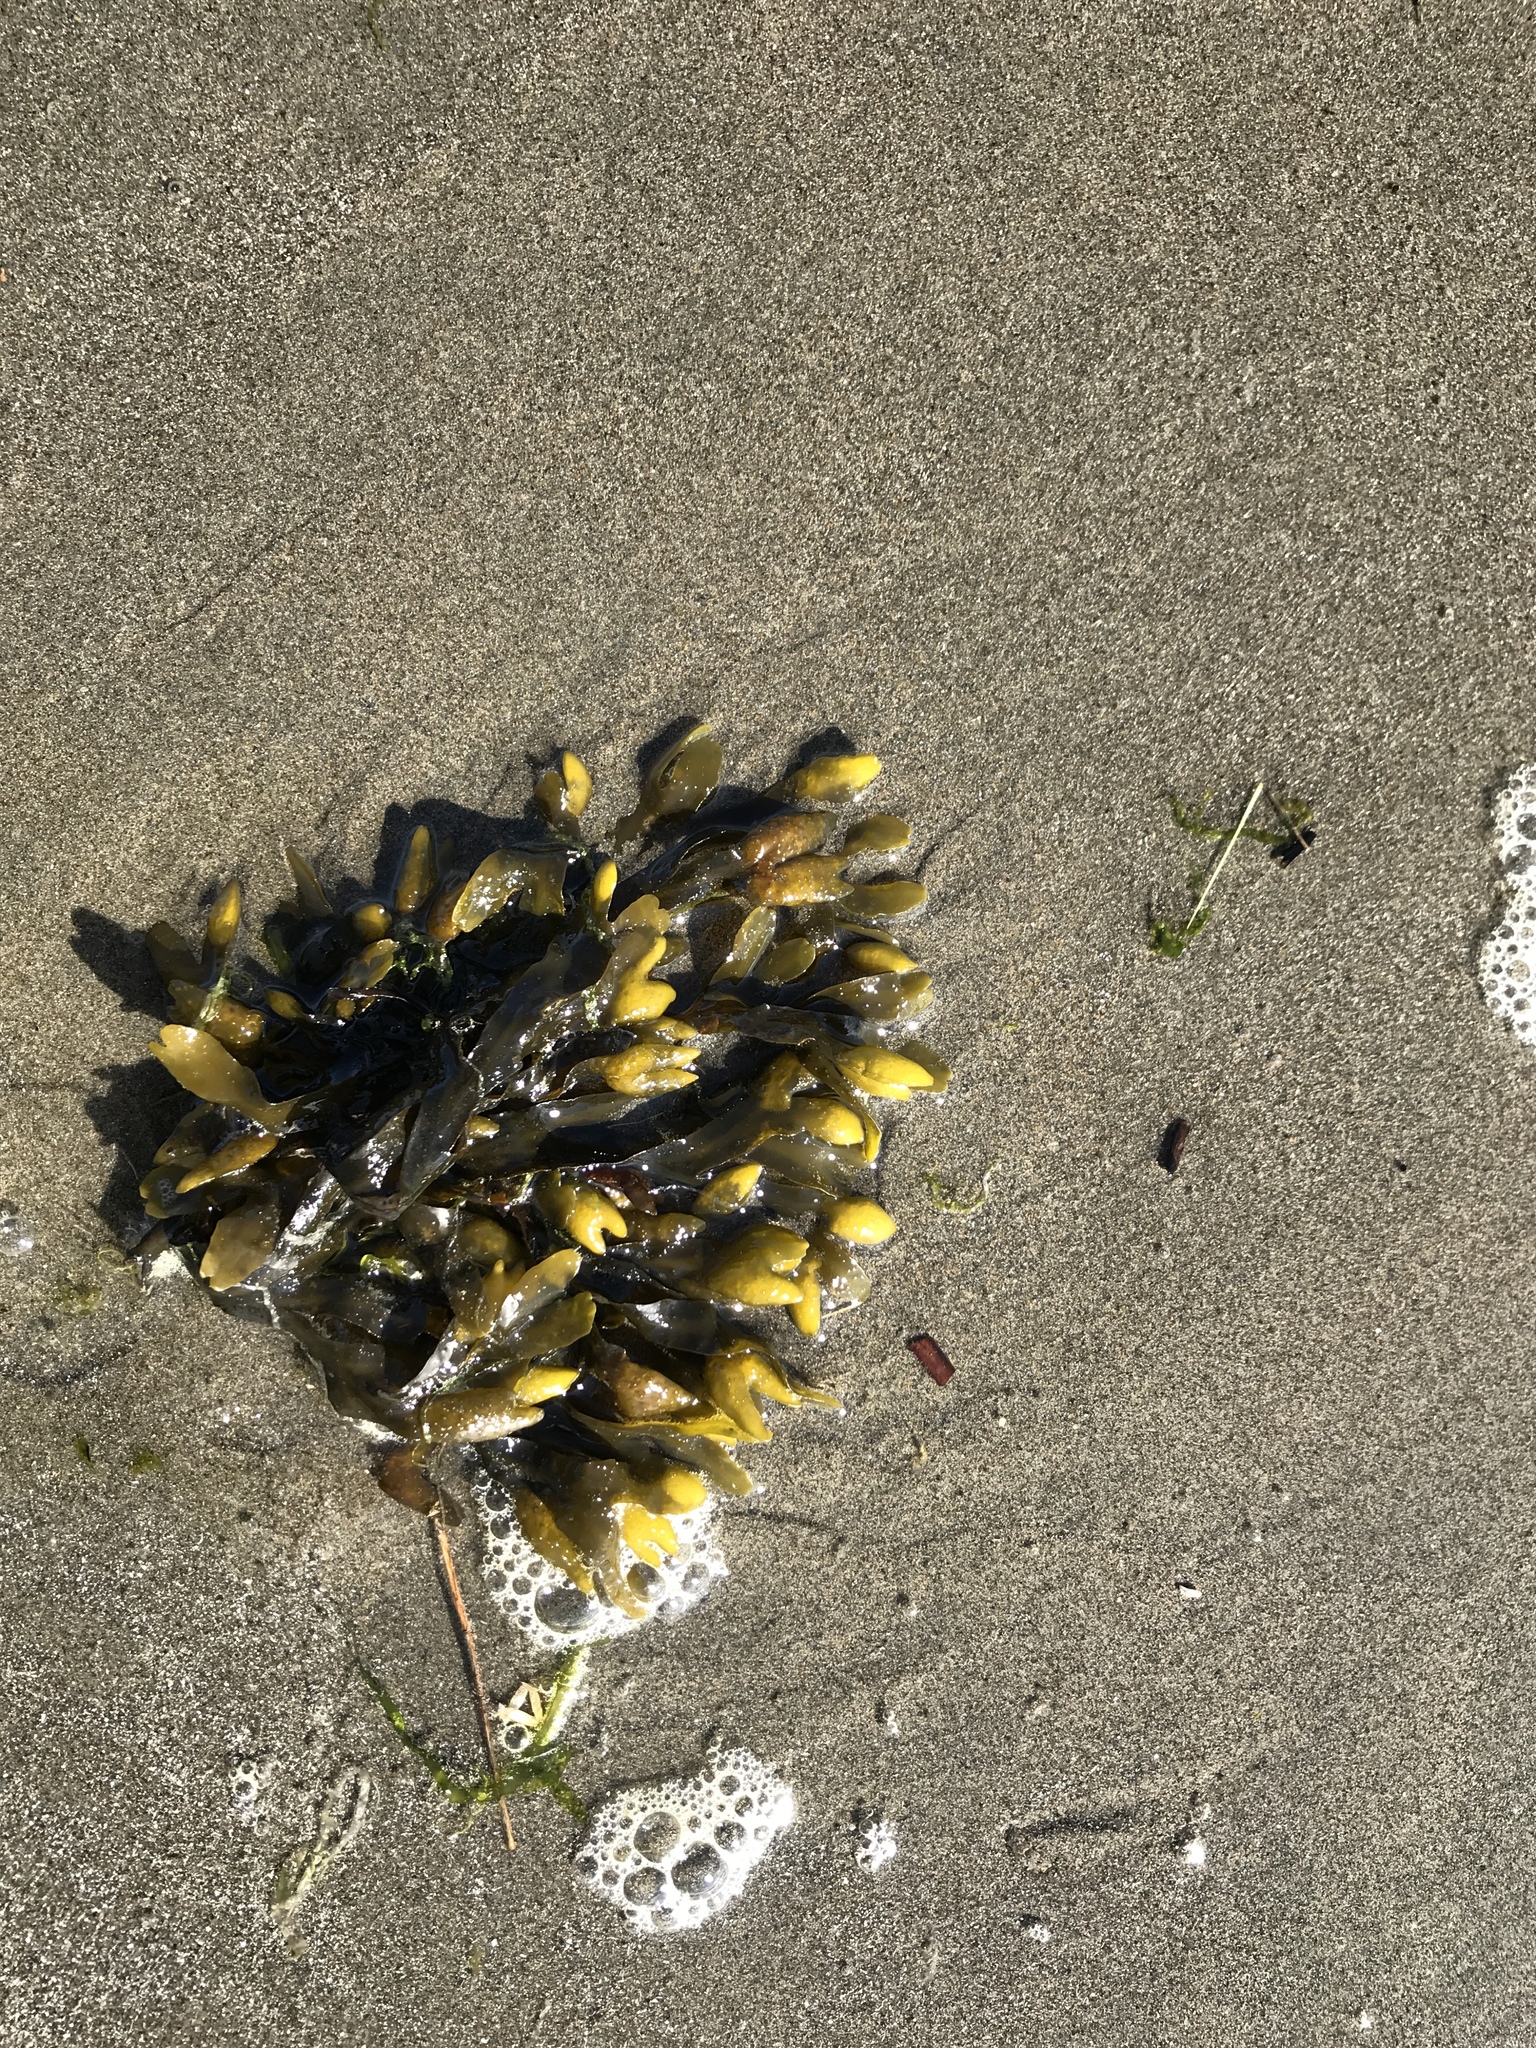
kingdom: Chromista
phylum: Ochrophyta
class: Phaeophyceae
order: Fucales
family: Fucaceae
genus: Fucus
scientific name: Fucus distichus
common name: Rockweed
